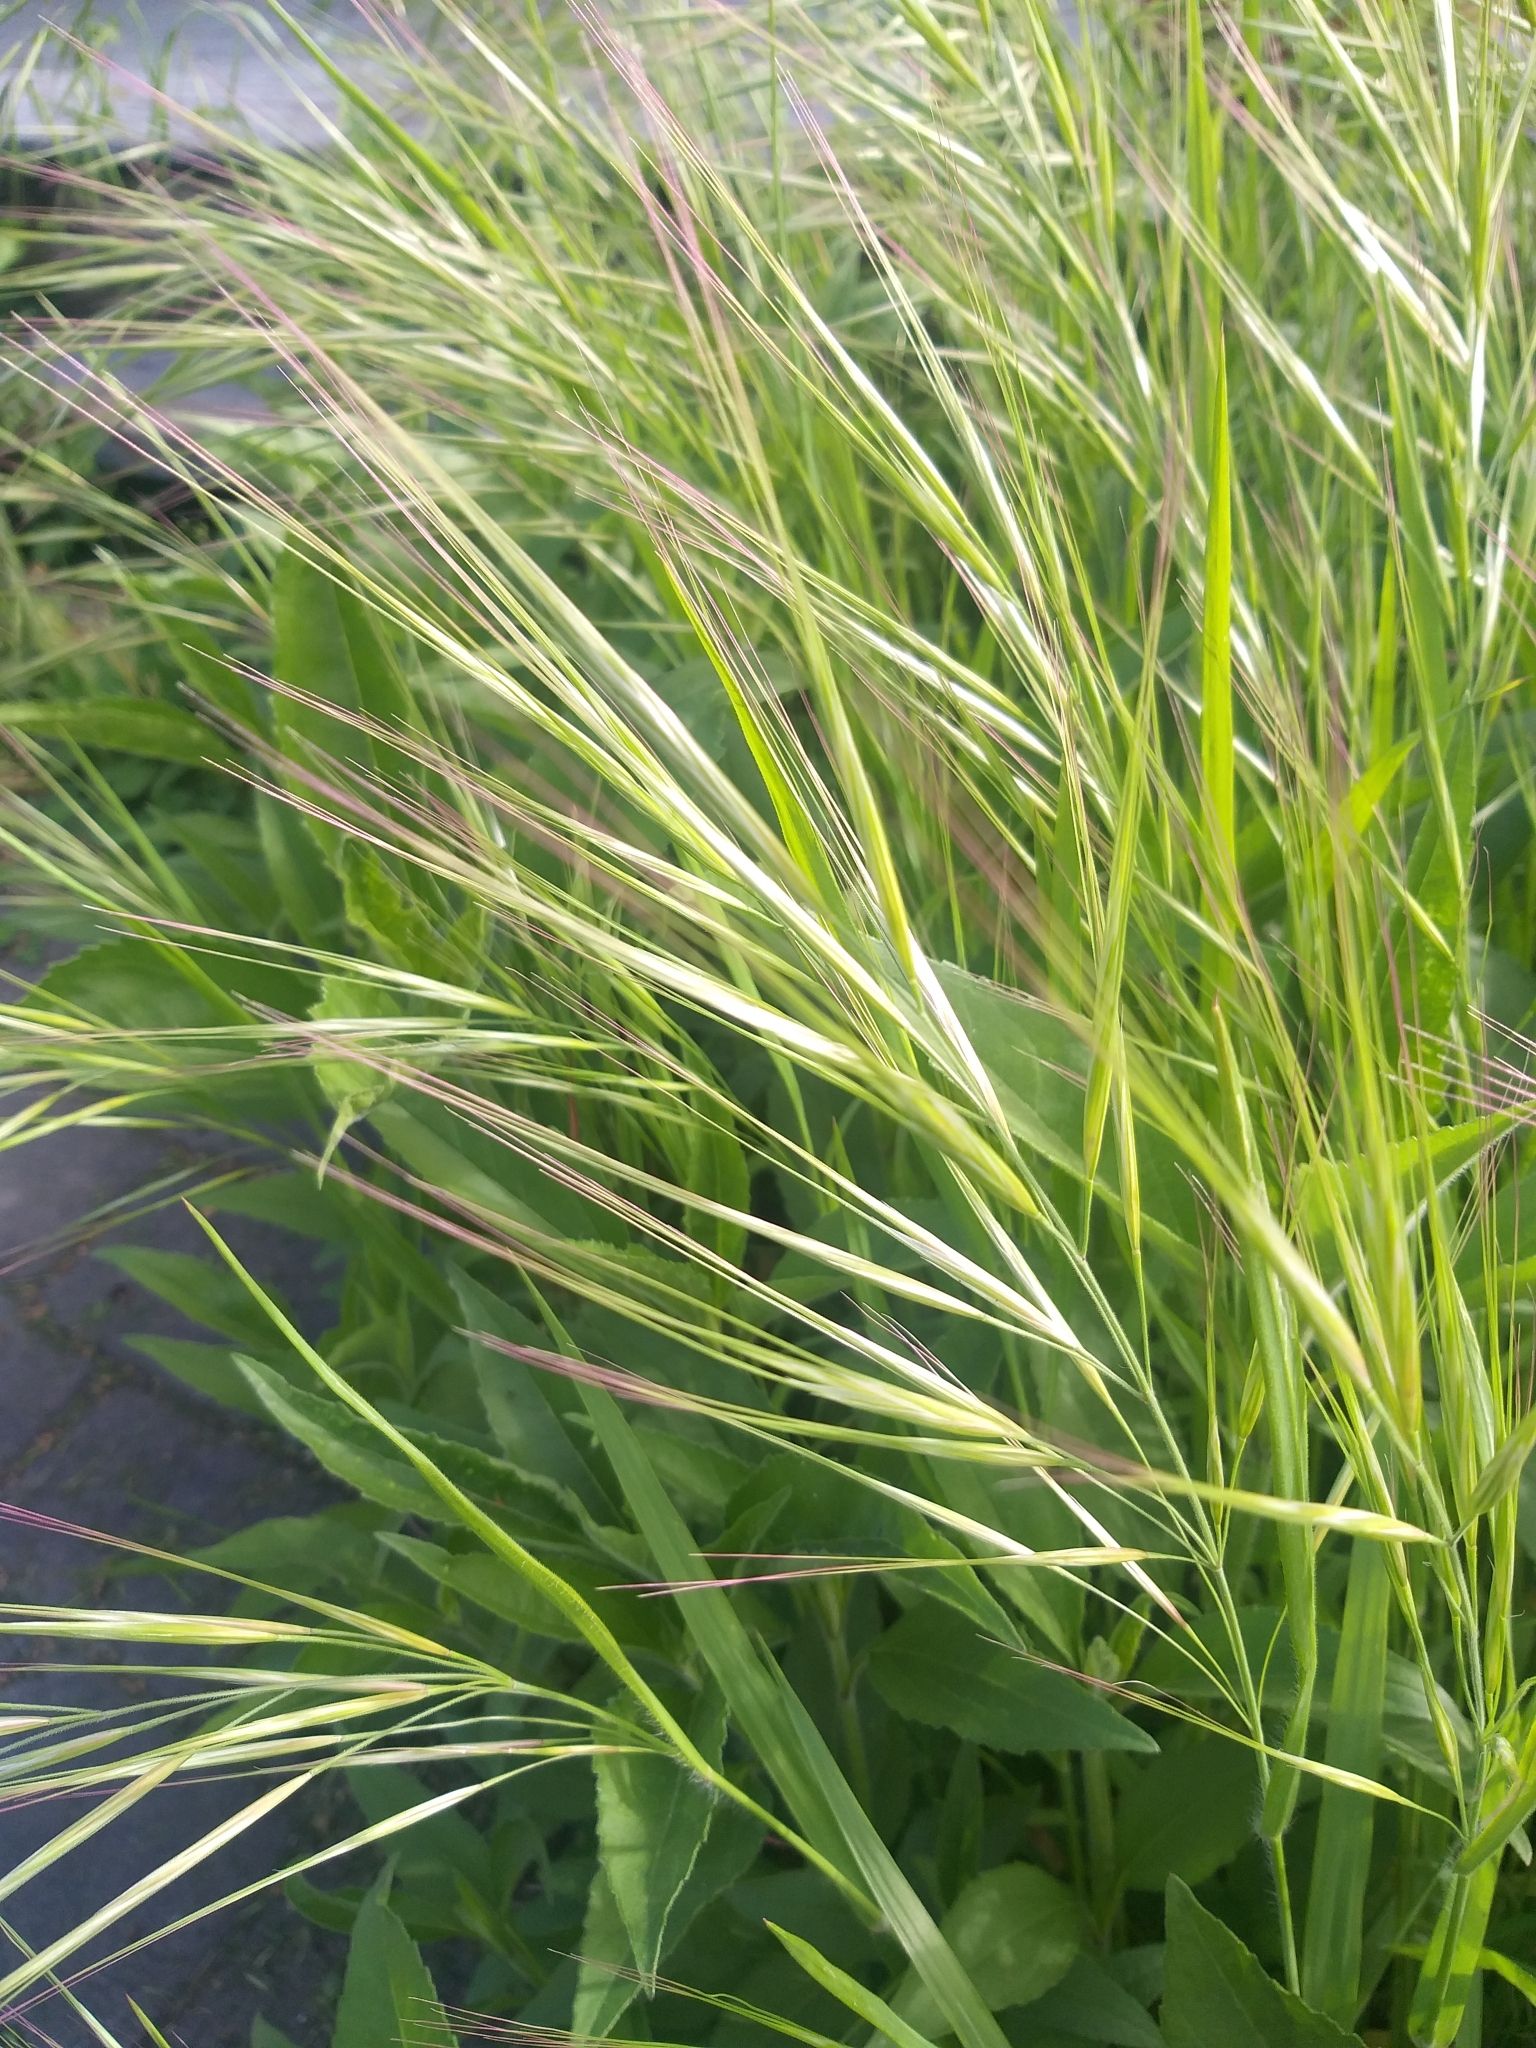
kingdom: Plantae
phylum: Tracheophyta
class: Liliopsida
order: Poales
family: Poaceae
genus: Bromus
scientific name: Bromus diandrus
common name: Ripgut brome
